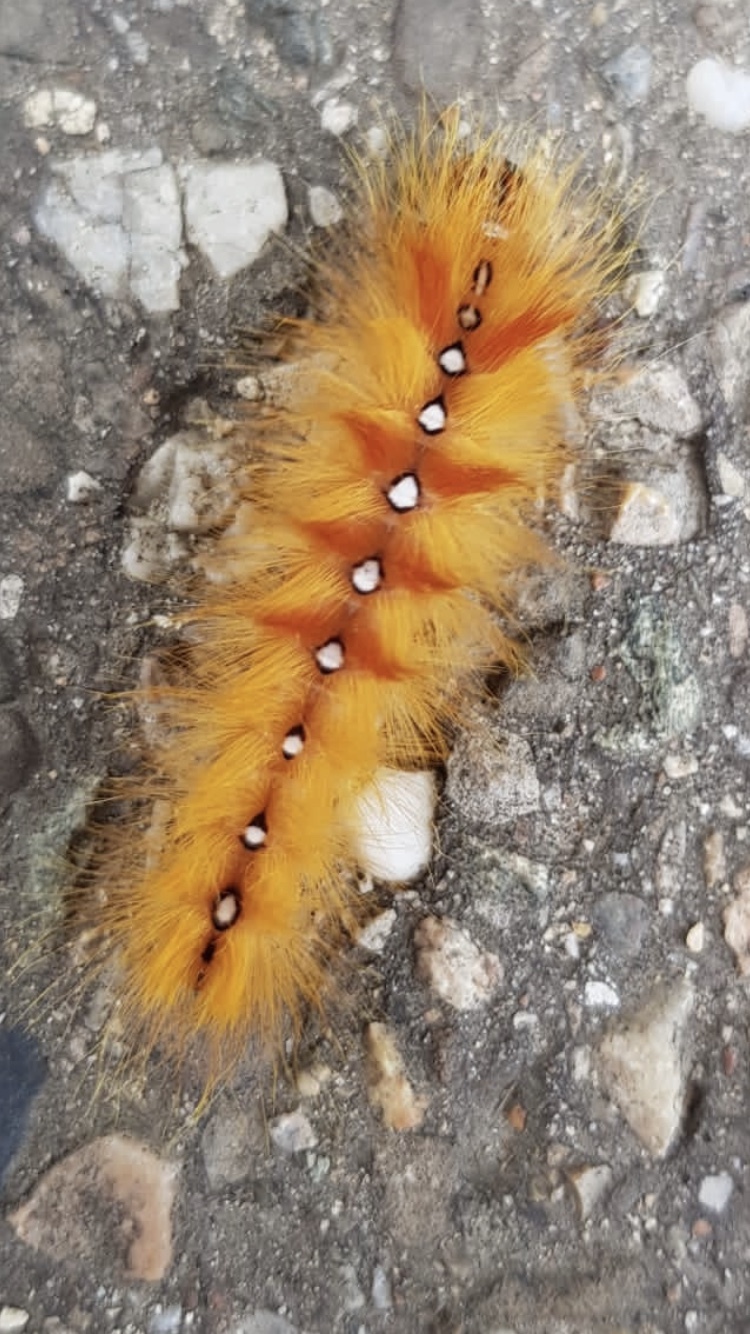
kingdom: Animalia
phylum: Arthropoda
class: Insecta
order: Lepidoptera
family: Noctuidae
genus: Acronicta
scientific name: Acronicta aceris
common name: Sycamore
